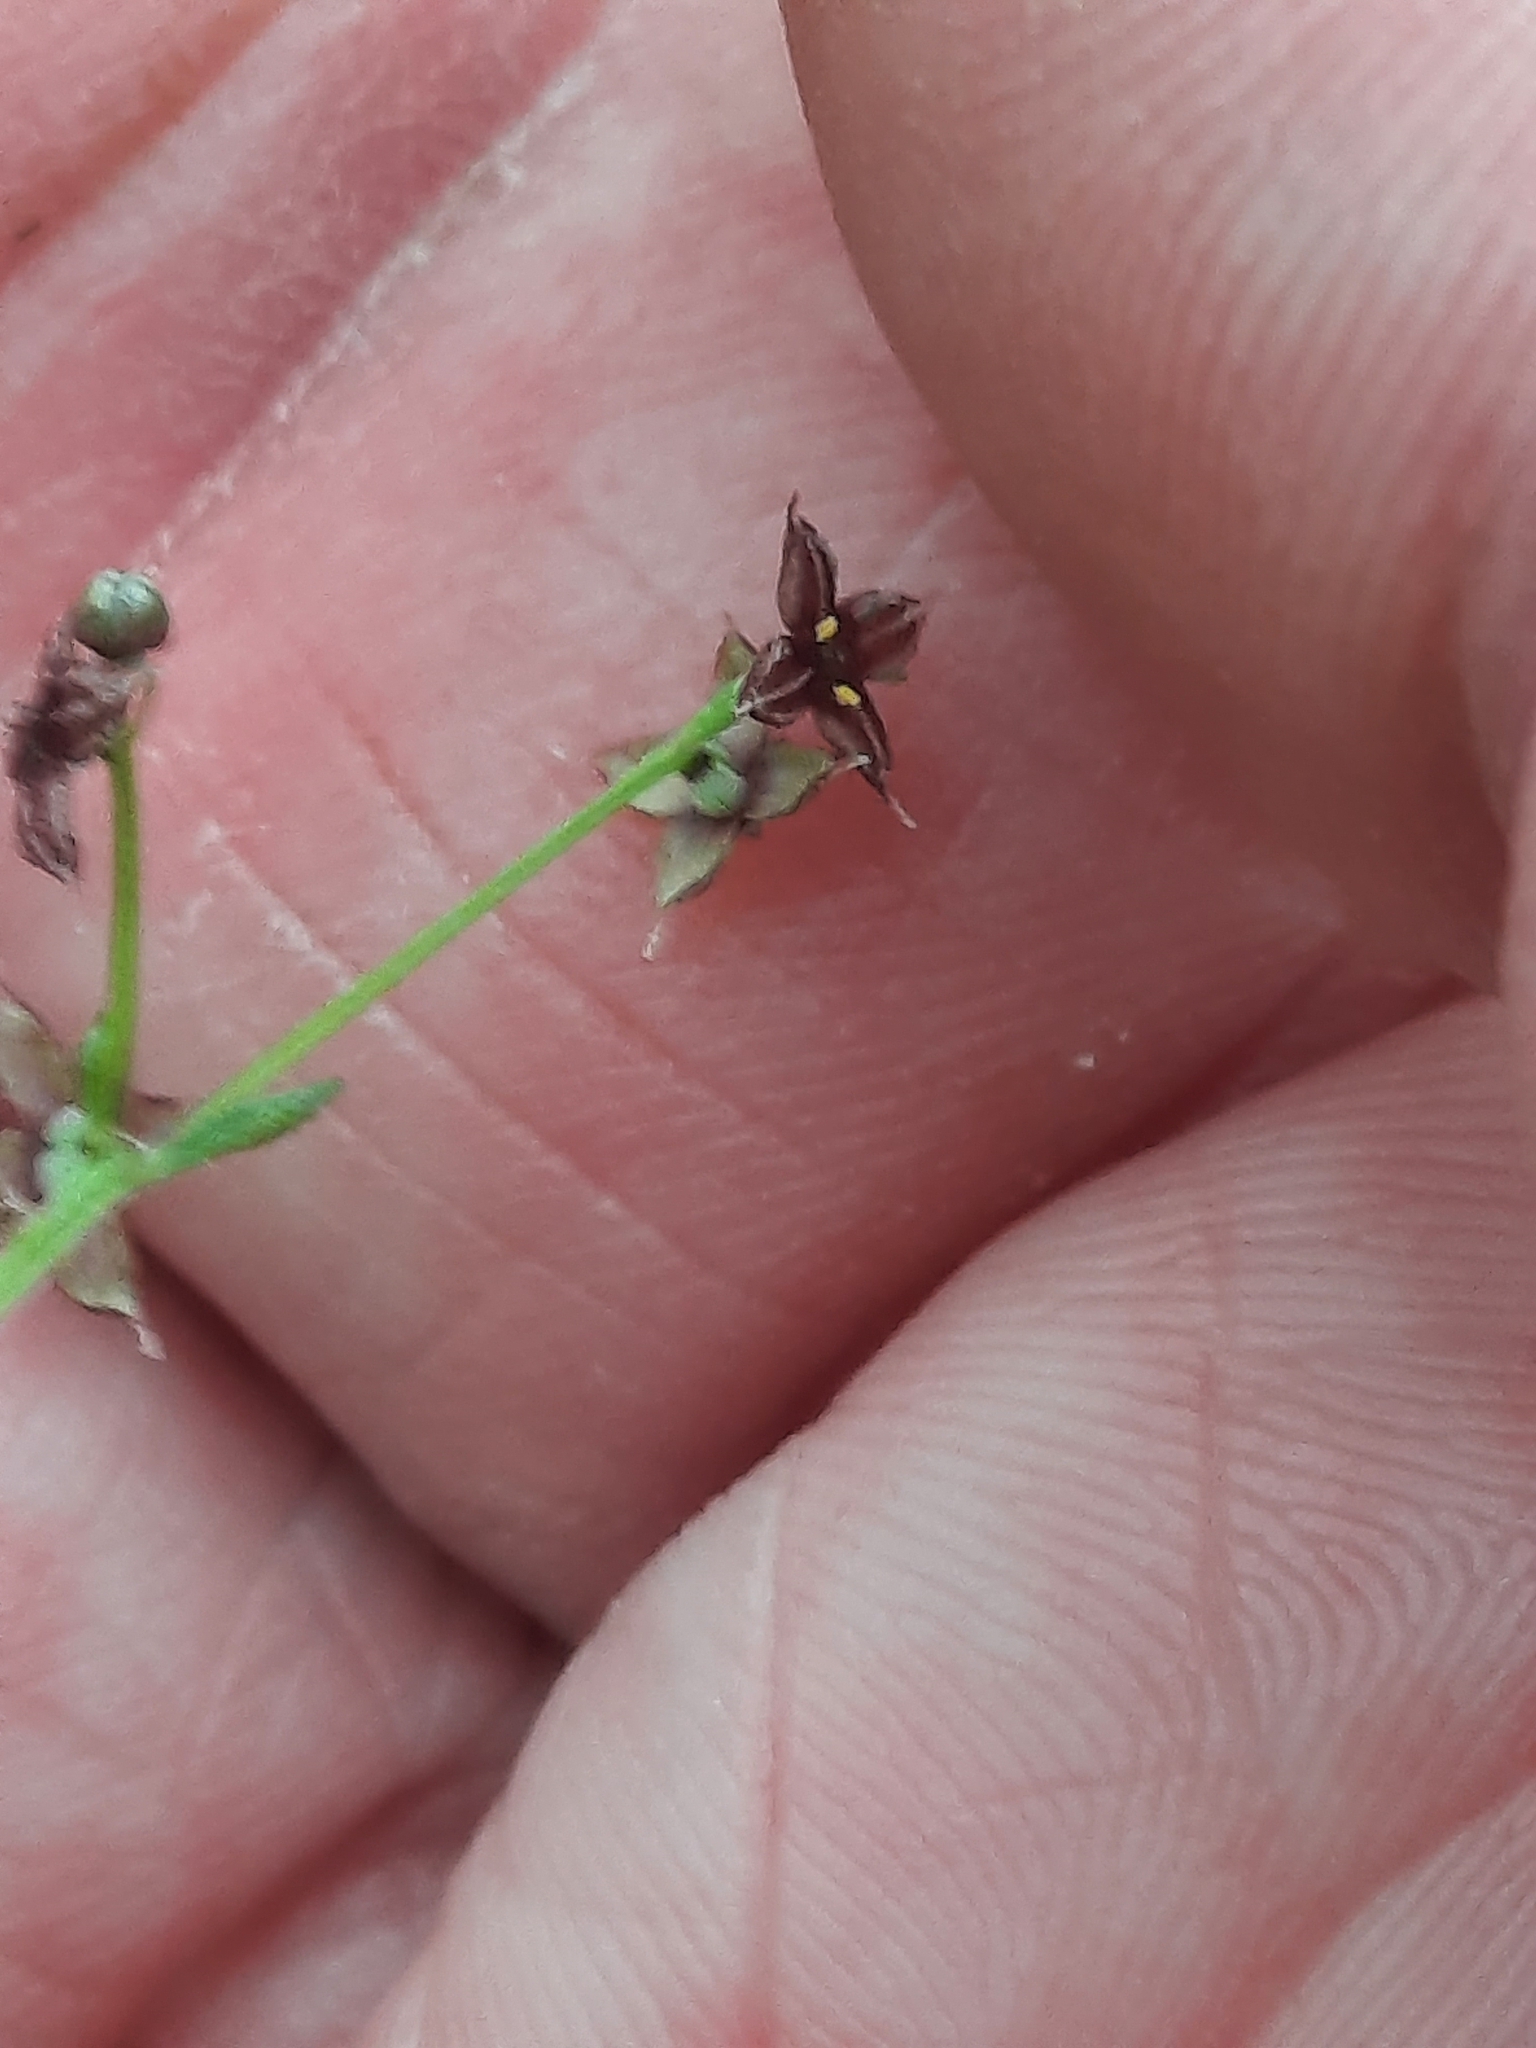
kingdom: Plantae
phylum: Tracheophyta
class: Magnoliopsida
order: Gentianales
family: Rubiaceae
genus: Galium
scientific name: Galium lanceolatum
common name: Lance-leaved wild licorice
